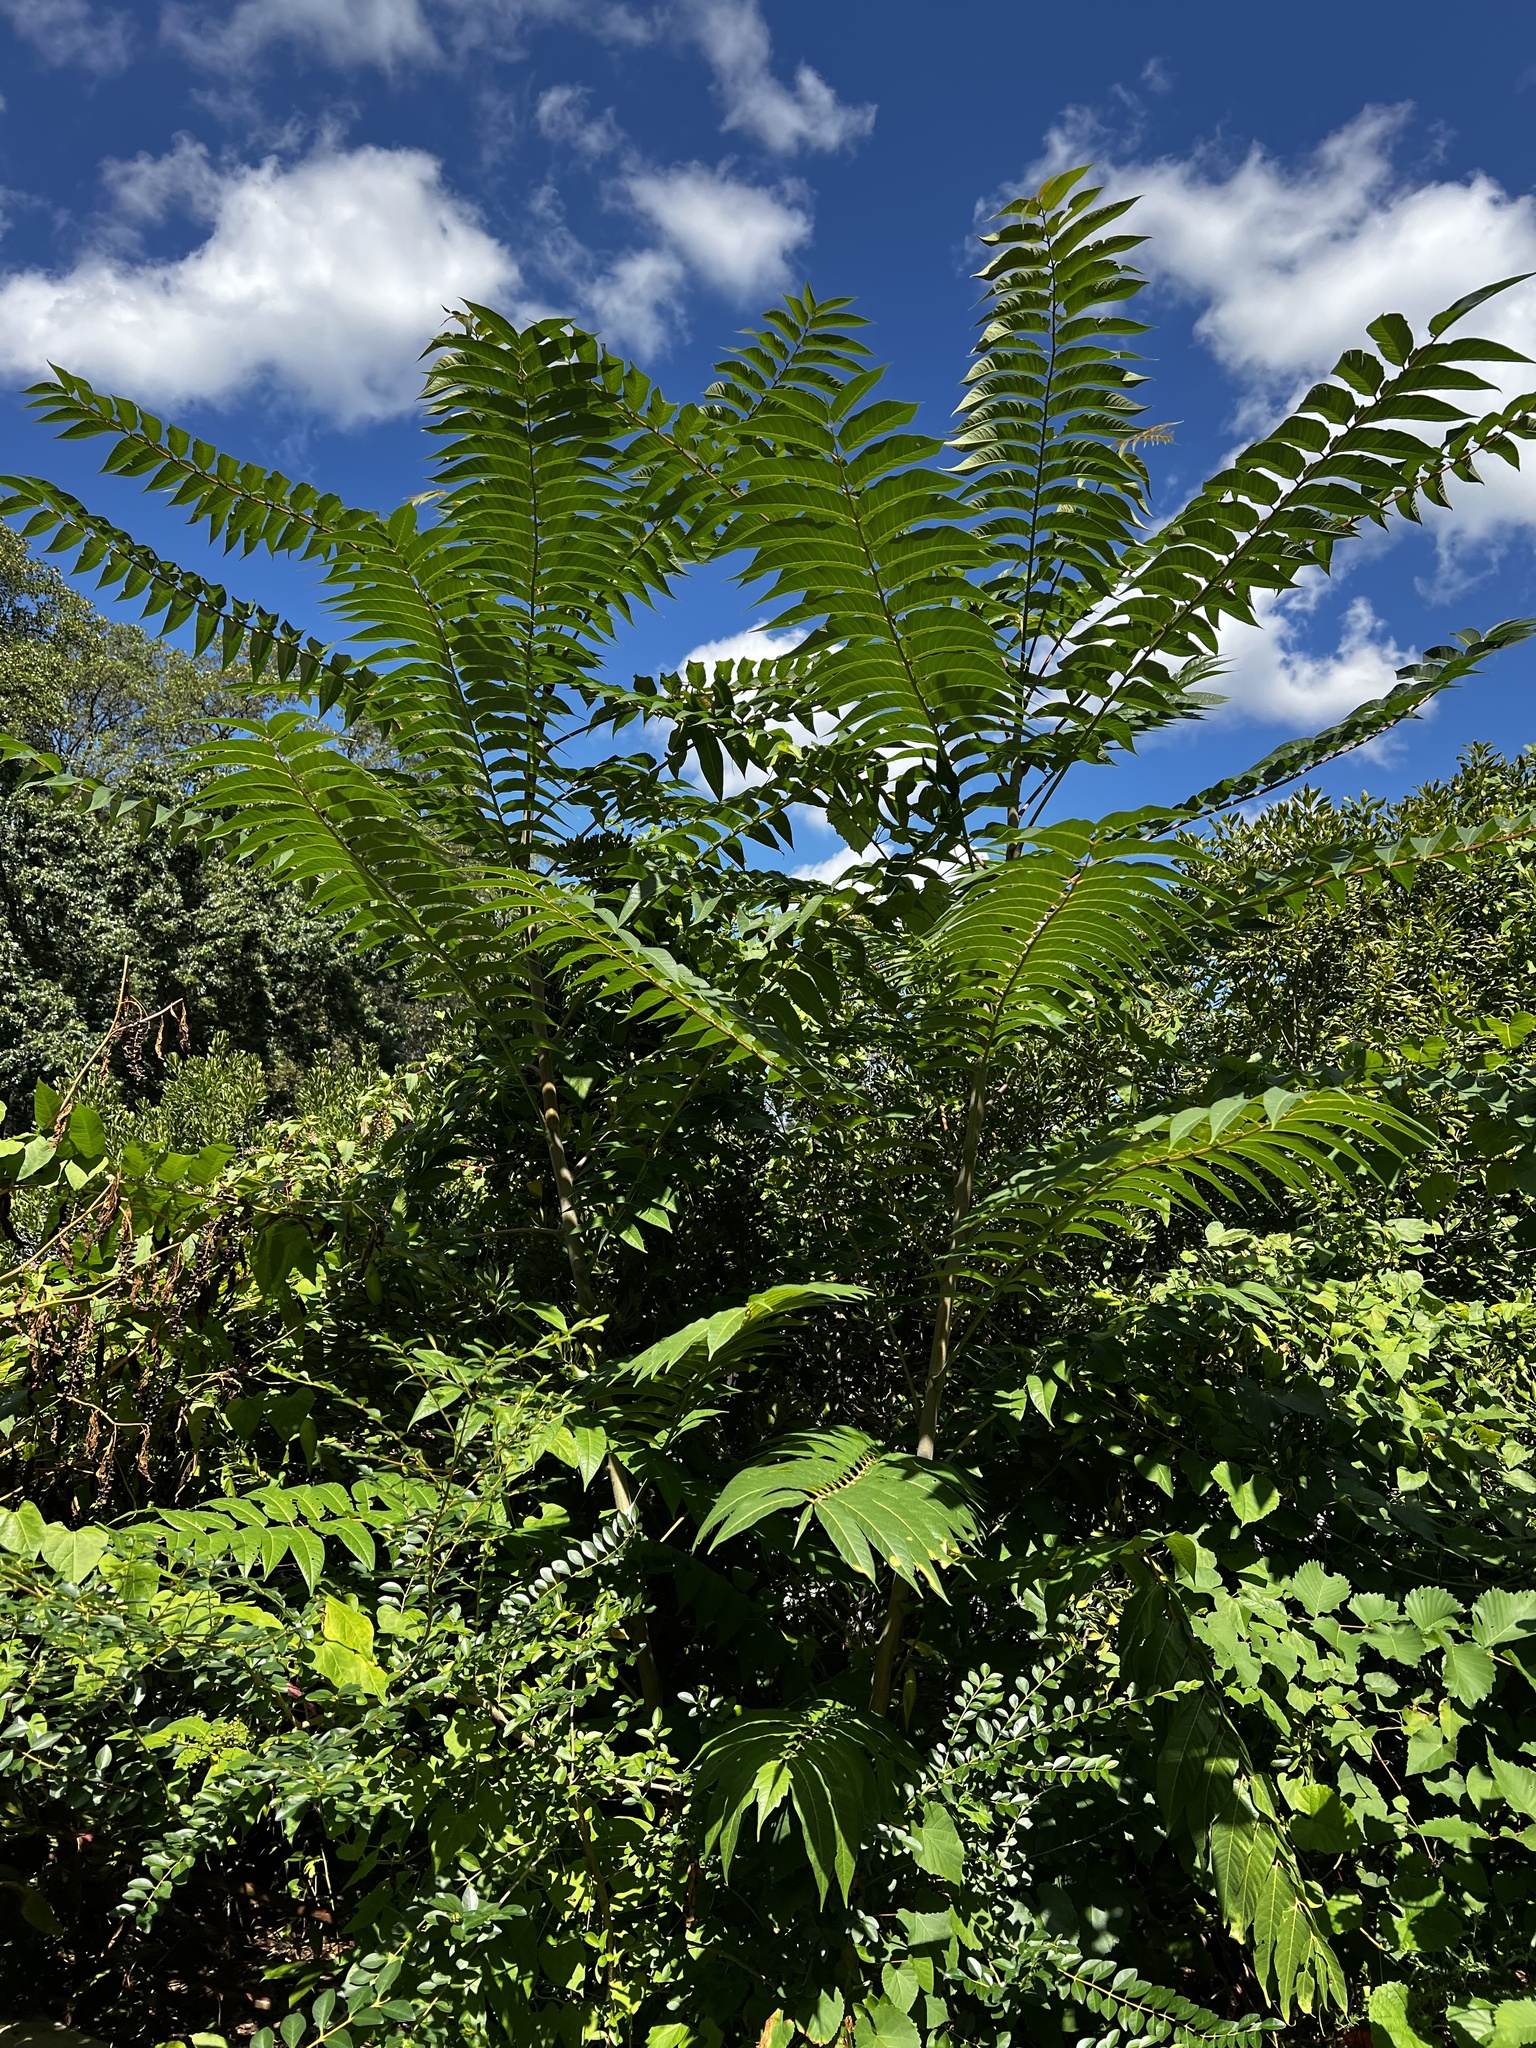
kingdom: Plantae
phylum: Tracheophyta
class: Magnoliopsida
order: Sapindales
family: Simaroubaceae
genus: Ailanthus
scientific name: Ailanthus altissima
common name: Tree-of-heaven
